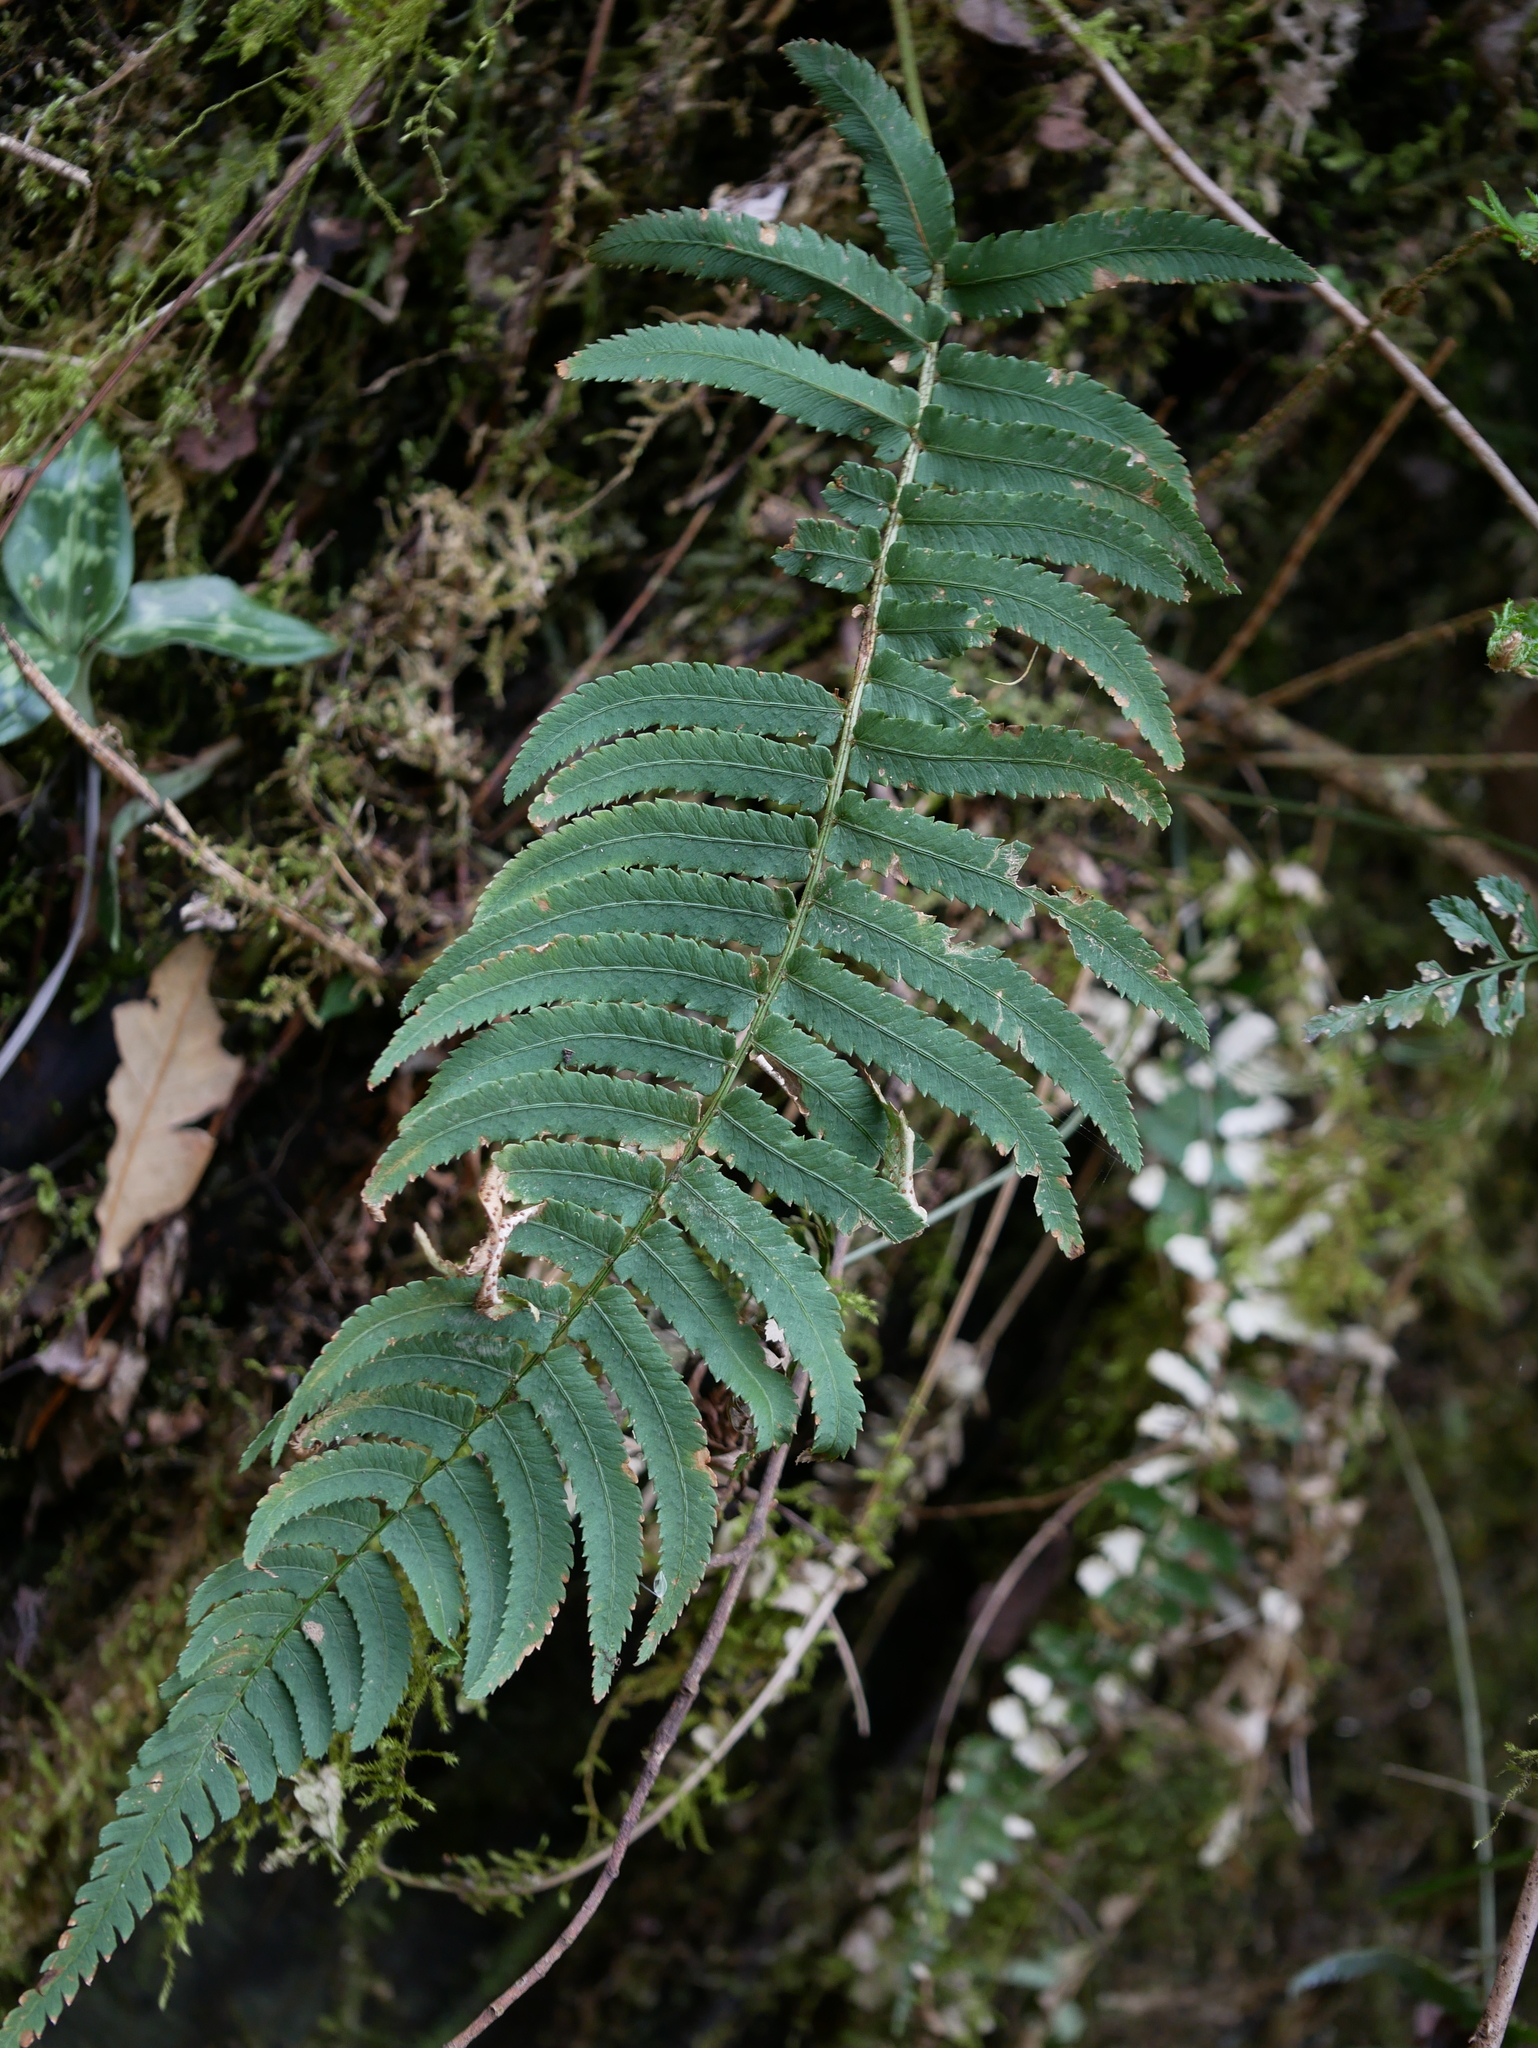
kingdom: Plantae
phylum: Tracheophyta
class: Polypodiopsida
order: Polypodiales
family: Dryopteridaceae
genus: Dryopteris
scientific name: Dryopteris cycadina
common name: Shaggy wood fern
